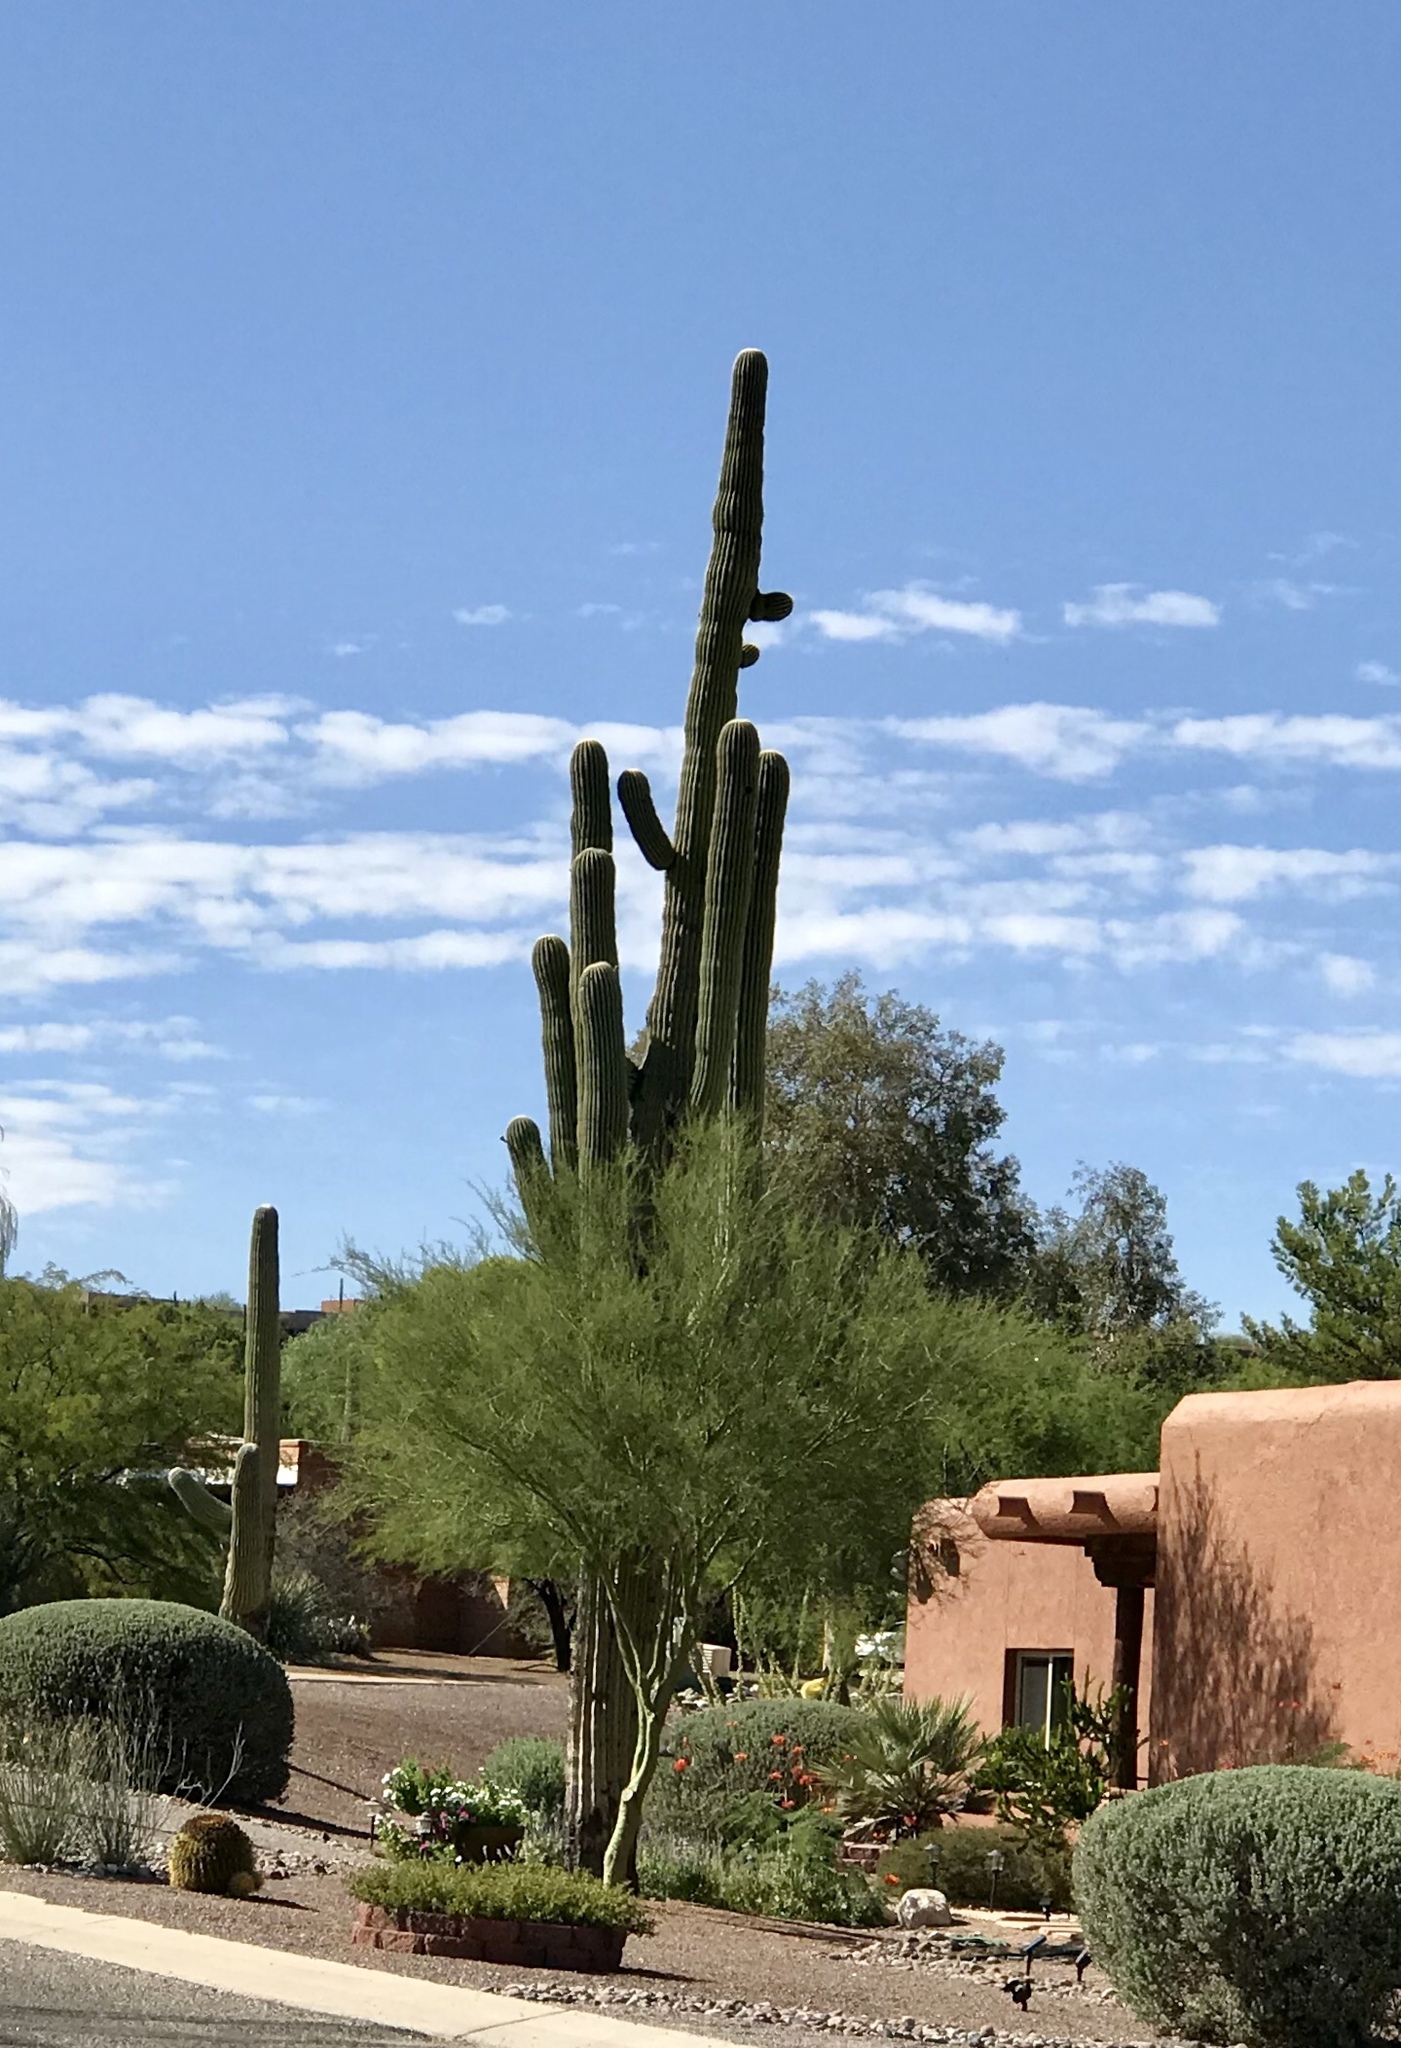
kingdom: Plantae
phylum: Tracheophyta
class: Magnoliopsida
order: Caryophyllales
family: Cactaceae
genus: Carnegiea
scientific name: Carnegiea gigantea
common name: Saguaro
